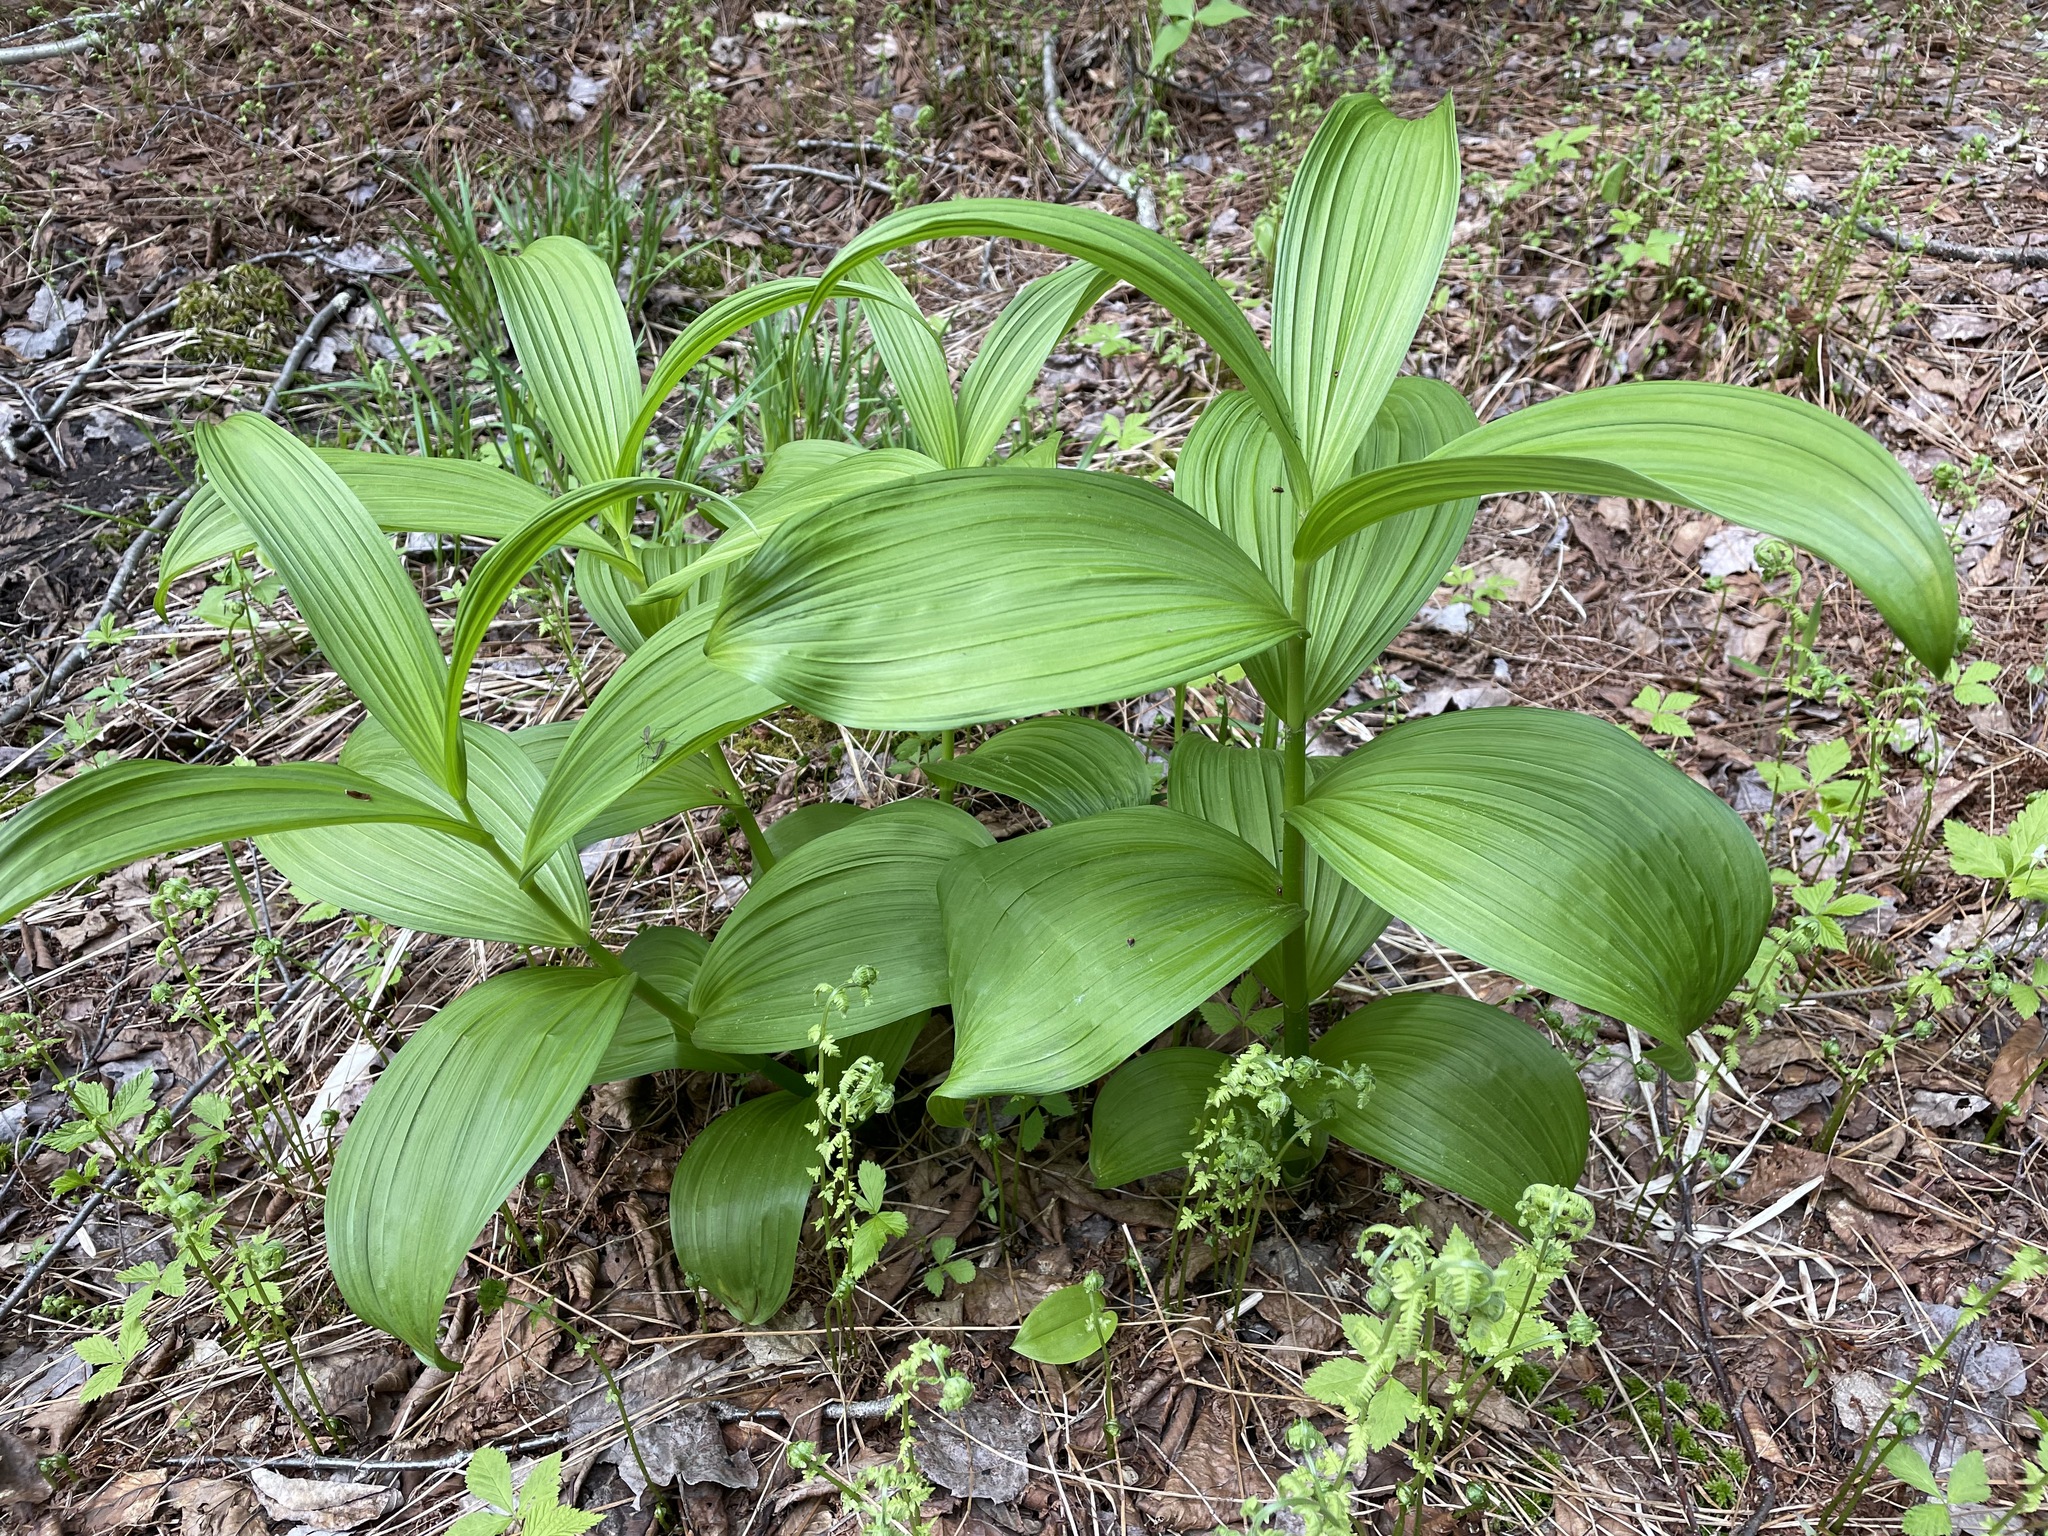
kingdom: Plantae
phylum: Tracheophyta
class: Liliopsida
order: Liliales
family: Melanthiaceae
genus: Veratrum
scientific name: Veratrum viride
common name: American false hellebore
